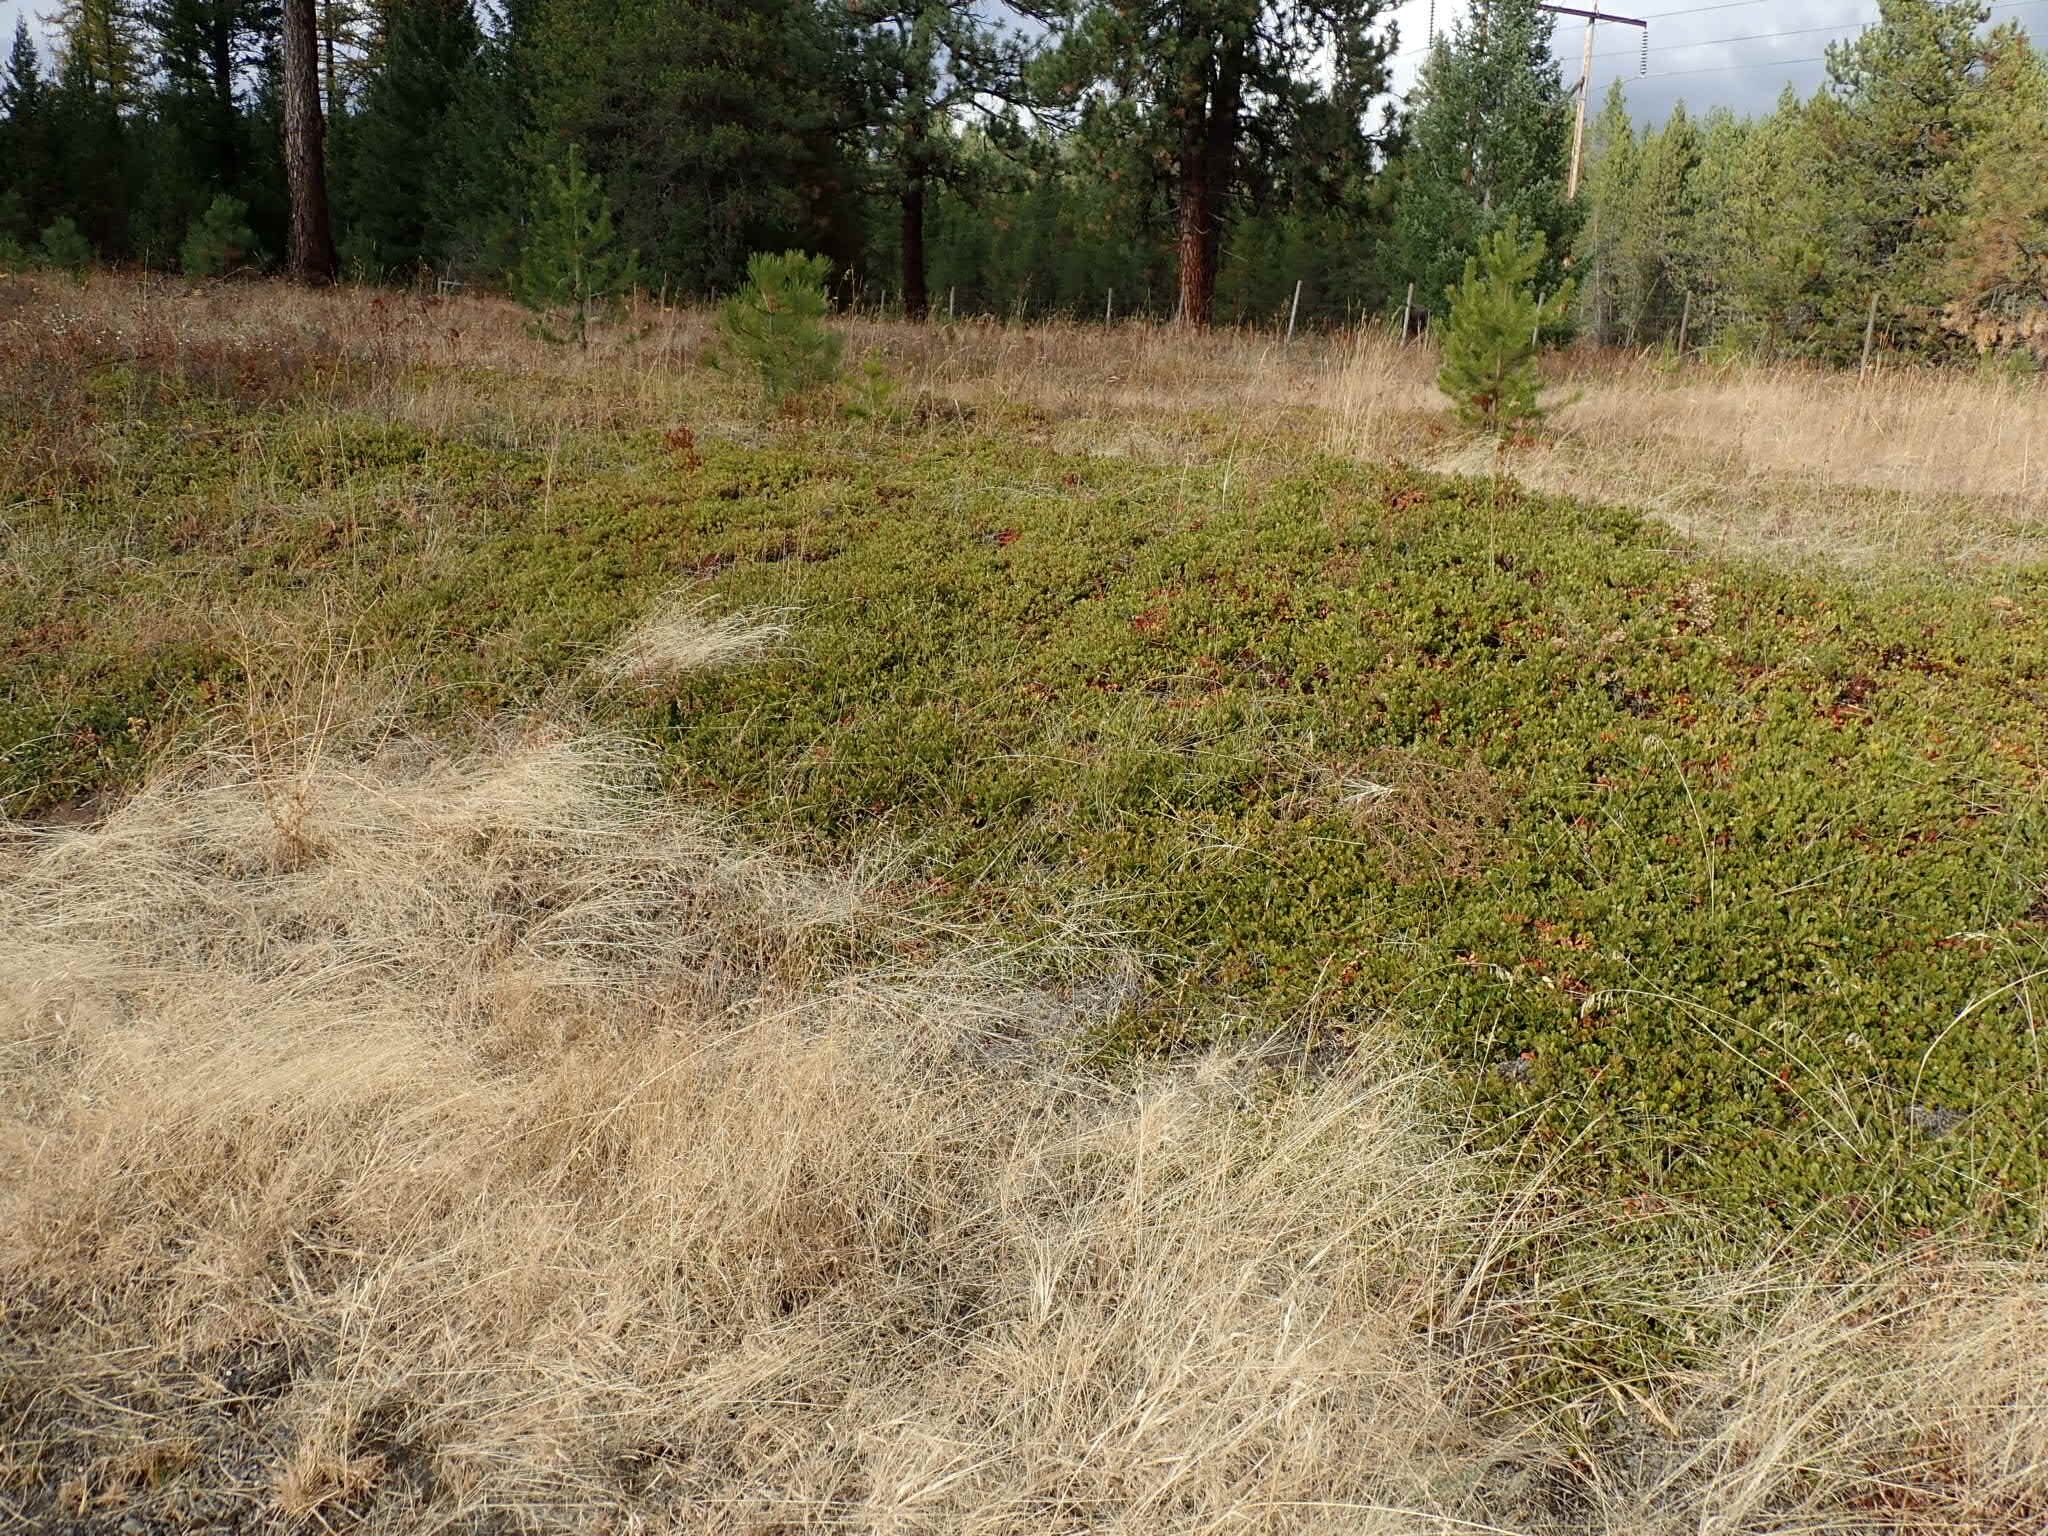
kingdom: Plantae
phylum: Tracheophyta
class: Magnoliopsida
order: Ericales
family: Ericaceae
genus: Arctostaphylos
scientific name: Arctostaphylos uva-ursi
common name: Bearberry
